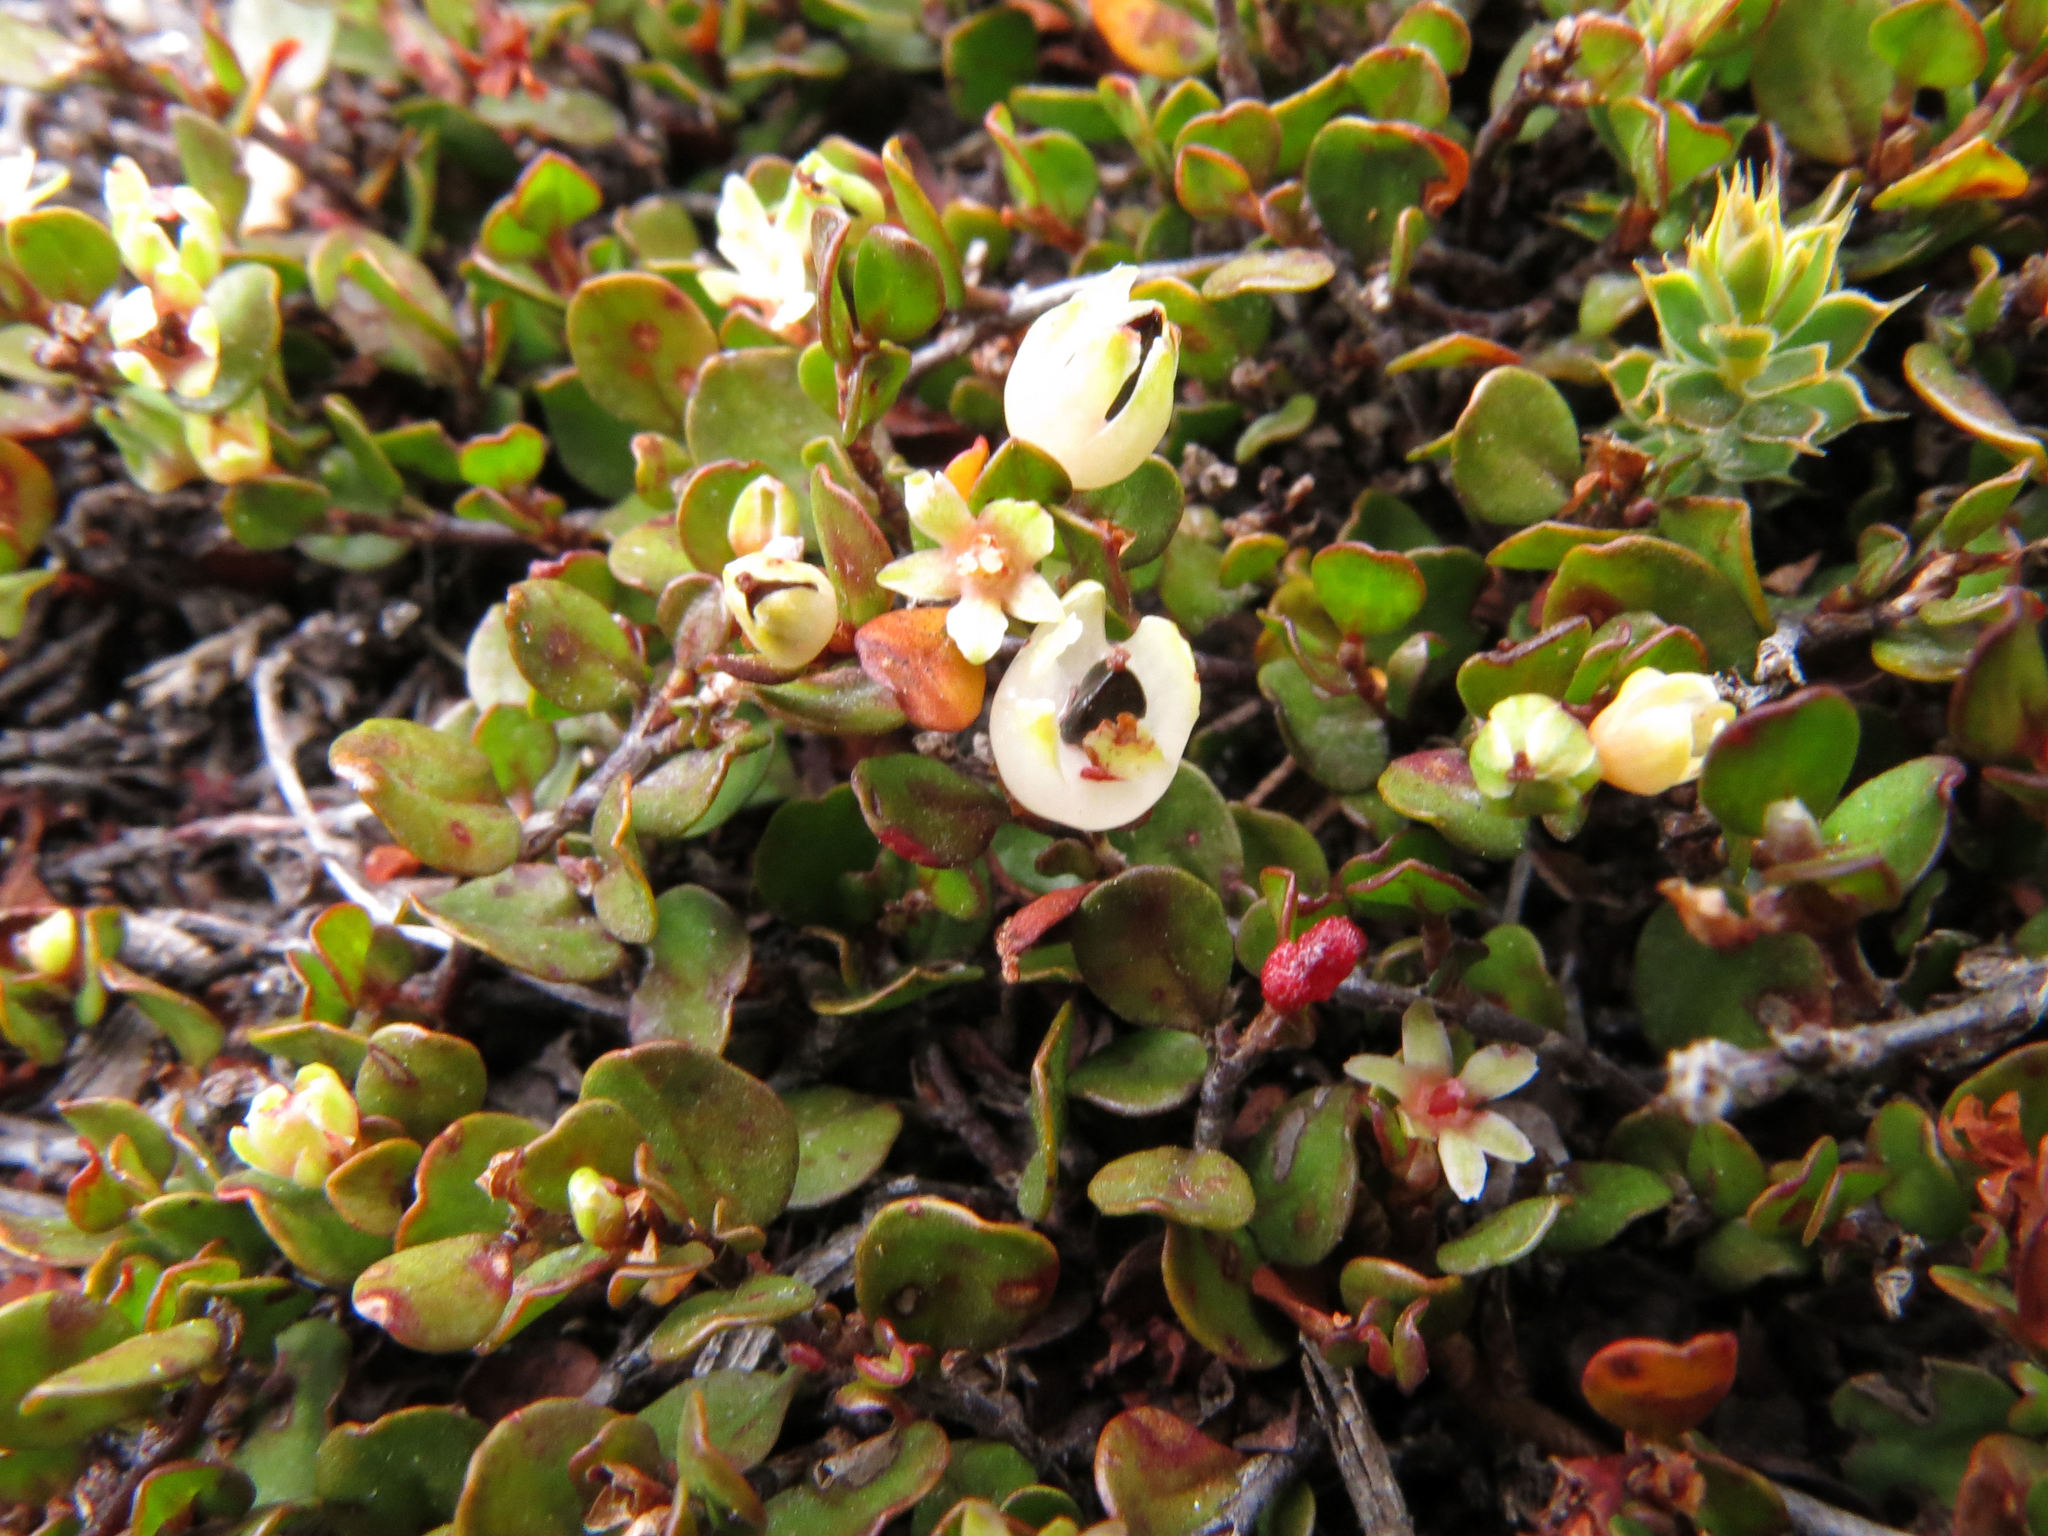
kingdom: Plantae
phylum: Tracheophyta
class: Magnoliopsida
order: Caryophyllales
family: Polygonaceae
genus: Muehlenbeckia
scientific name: Muehlenbeckia axillaris
